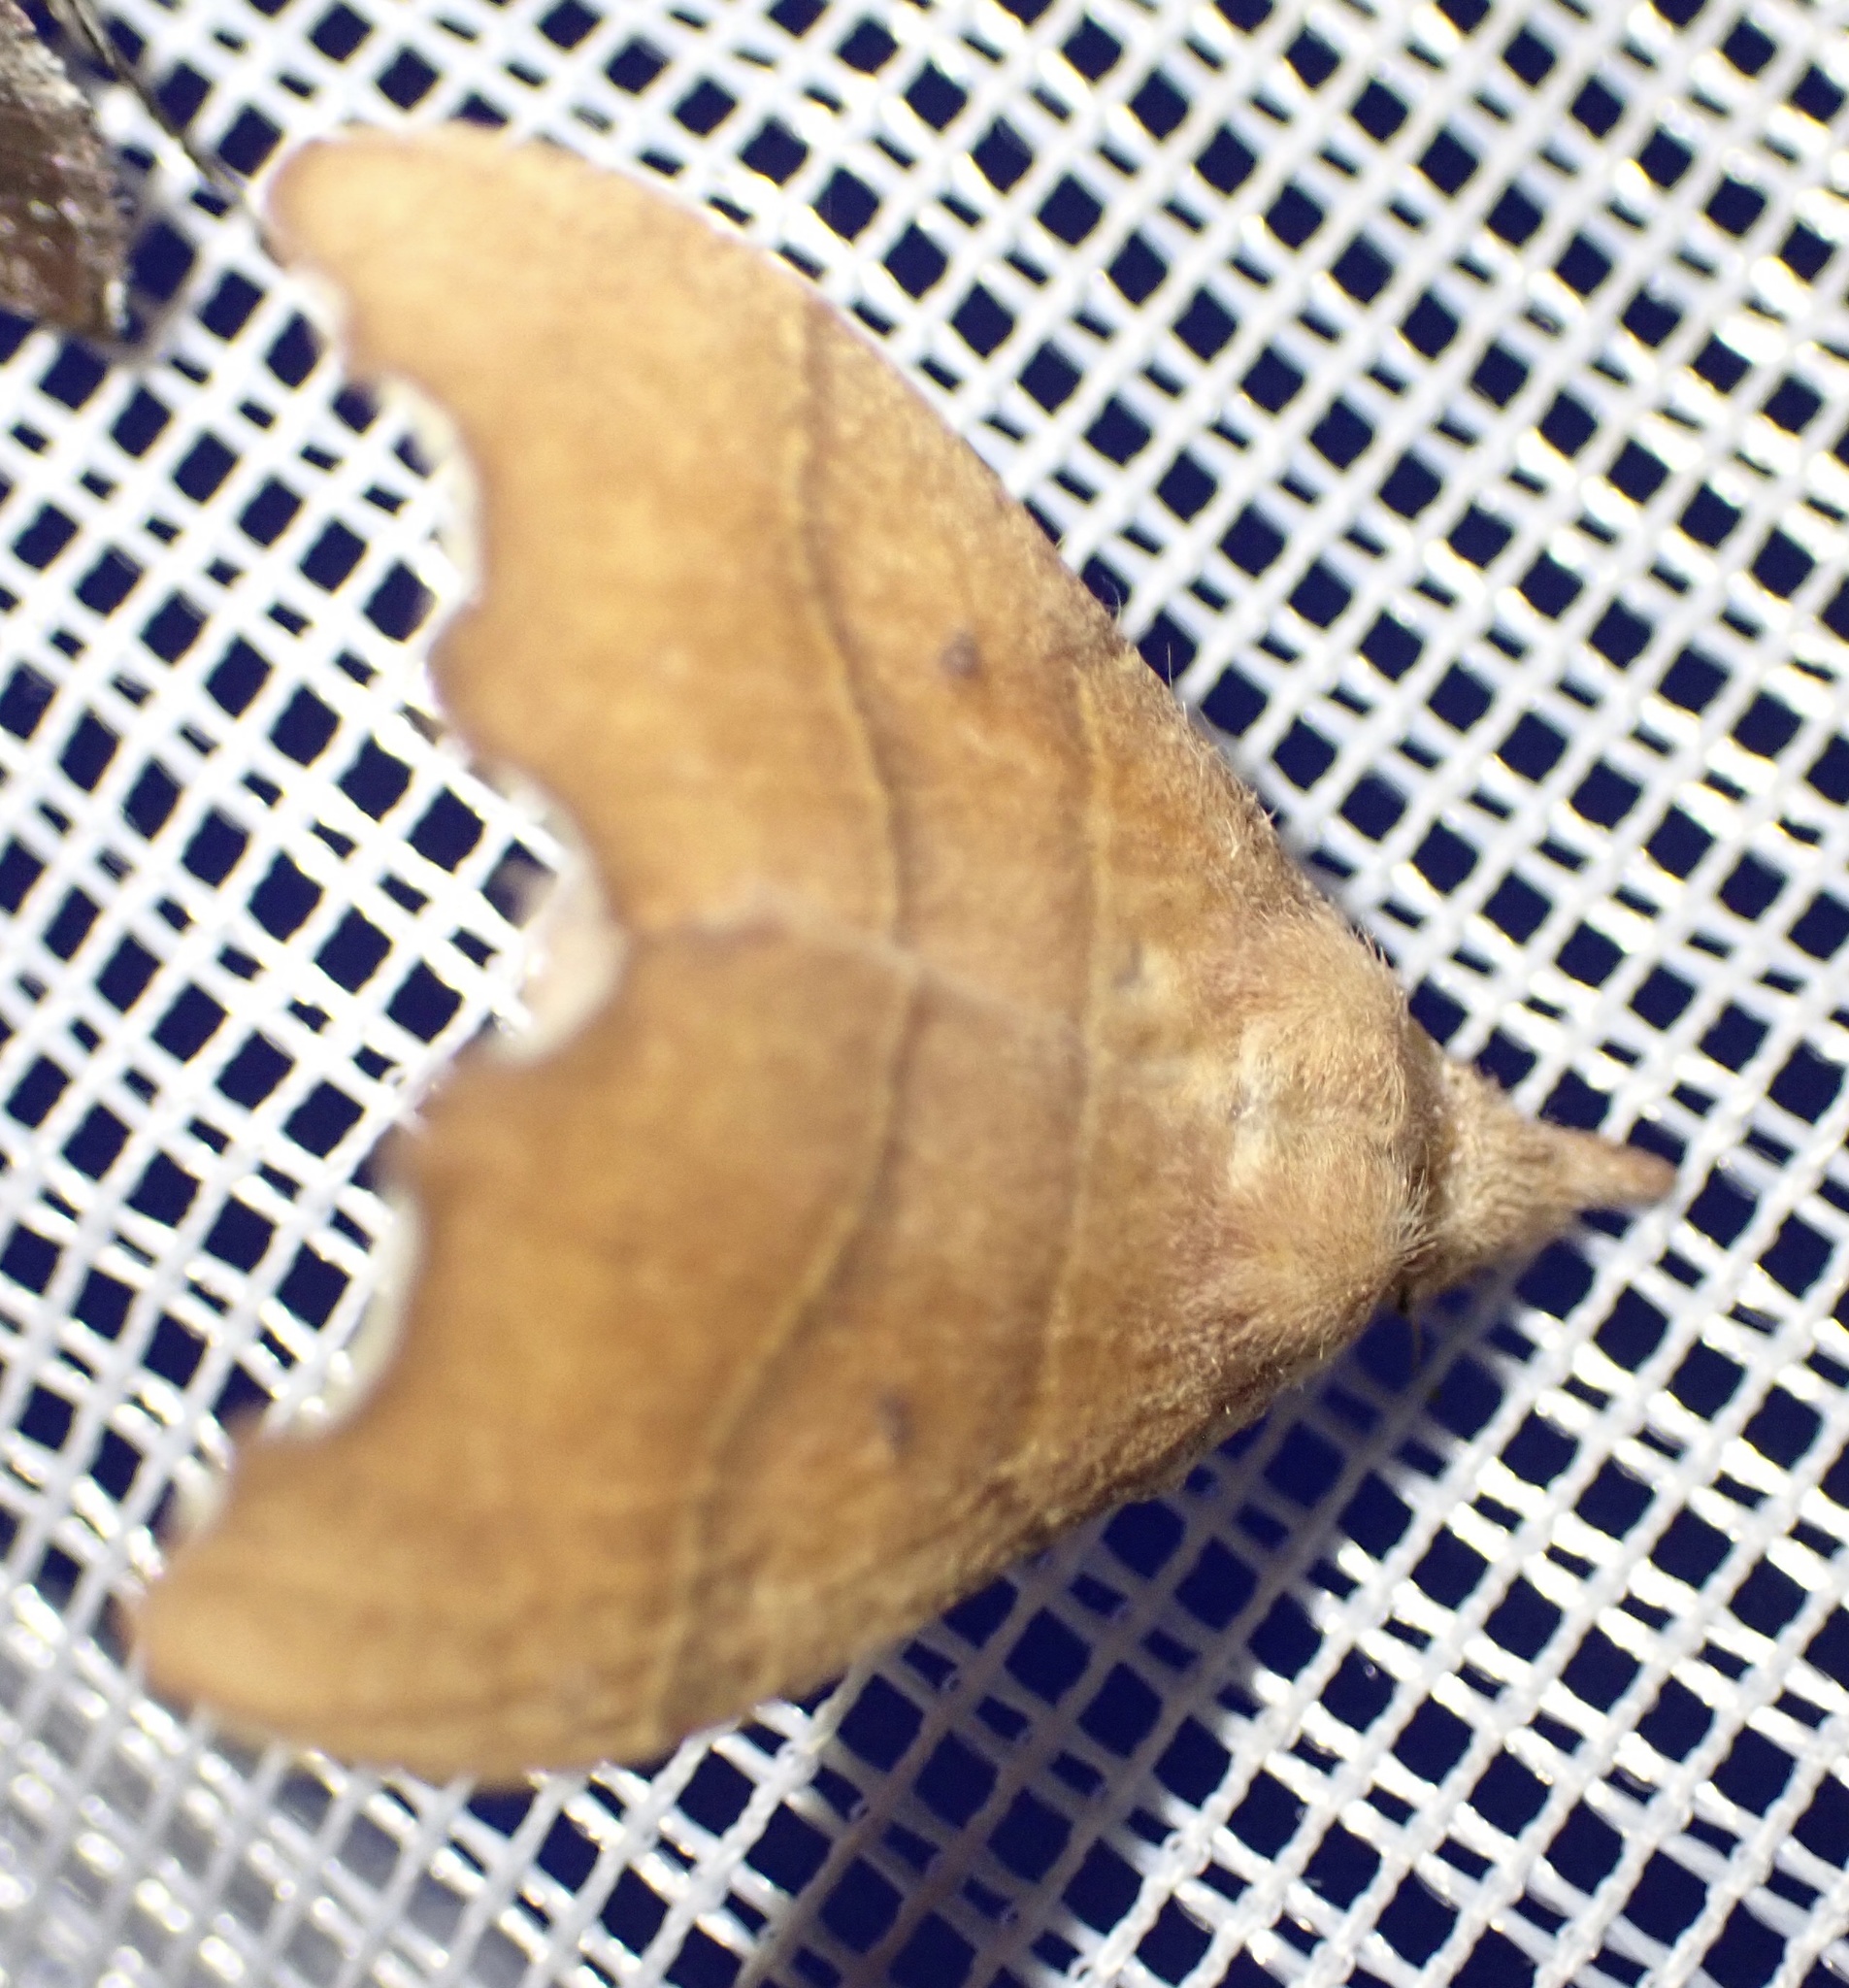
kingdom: Animalia
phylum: Arthropoda
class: Insecta
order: Lepidoptera
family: Lasiocampidae
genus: Leipoxais
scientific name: Leipoxais hapsimachus
